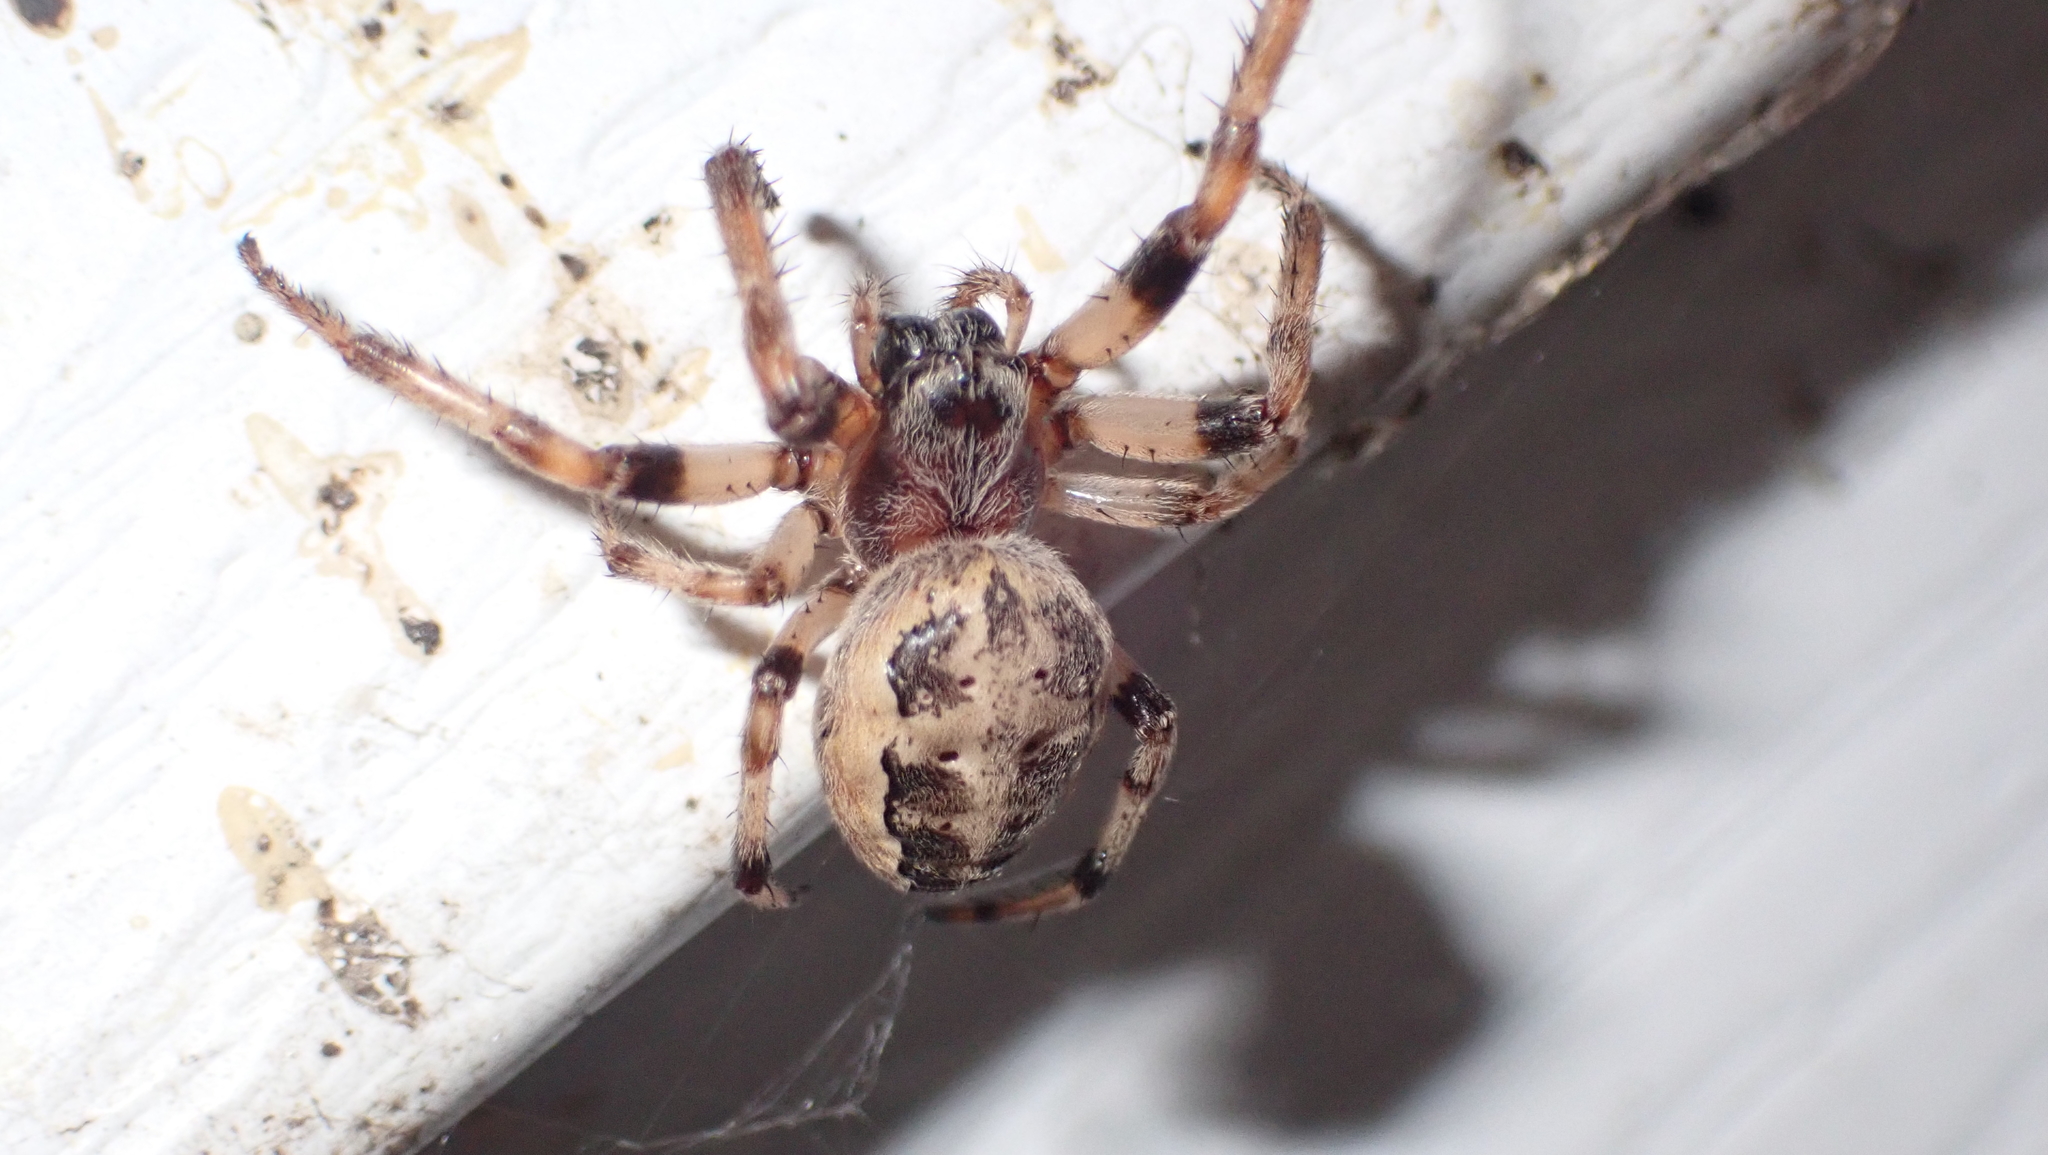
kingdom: Animalia
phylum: Arthropoda
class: Arachnida
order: Araneae
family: Araneidae
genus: Larinioides
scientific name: Larinioides cornutus
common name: Furrow orbweaver
